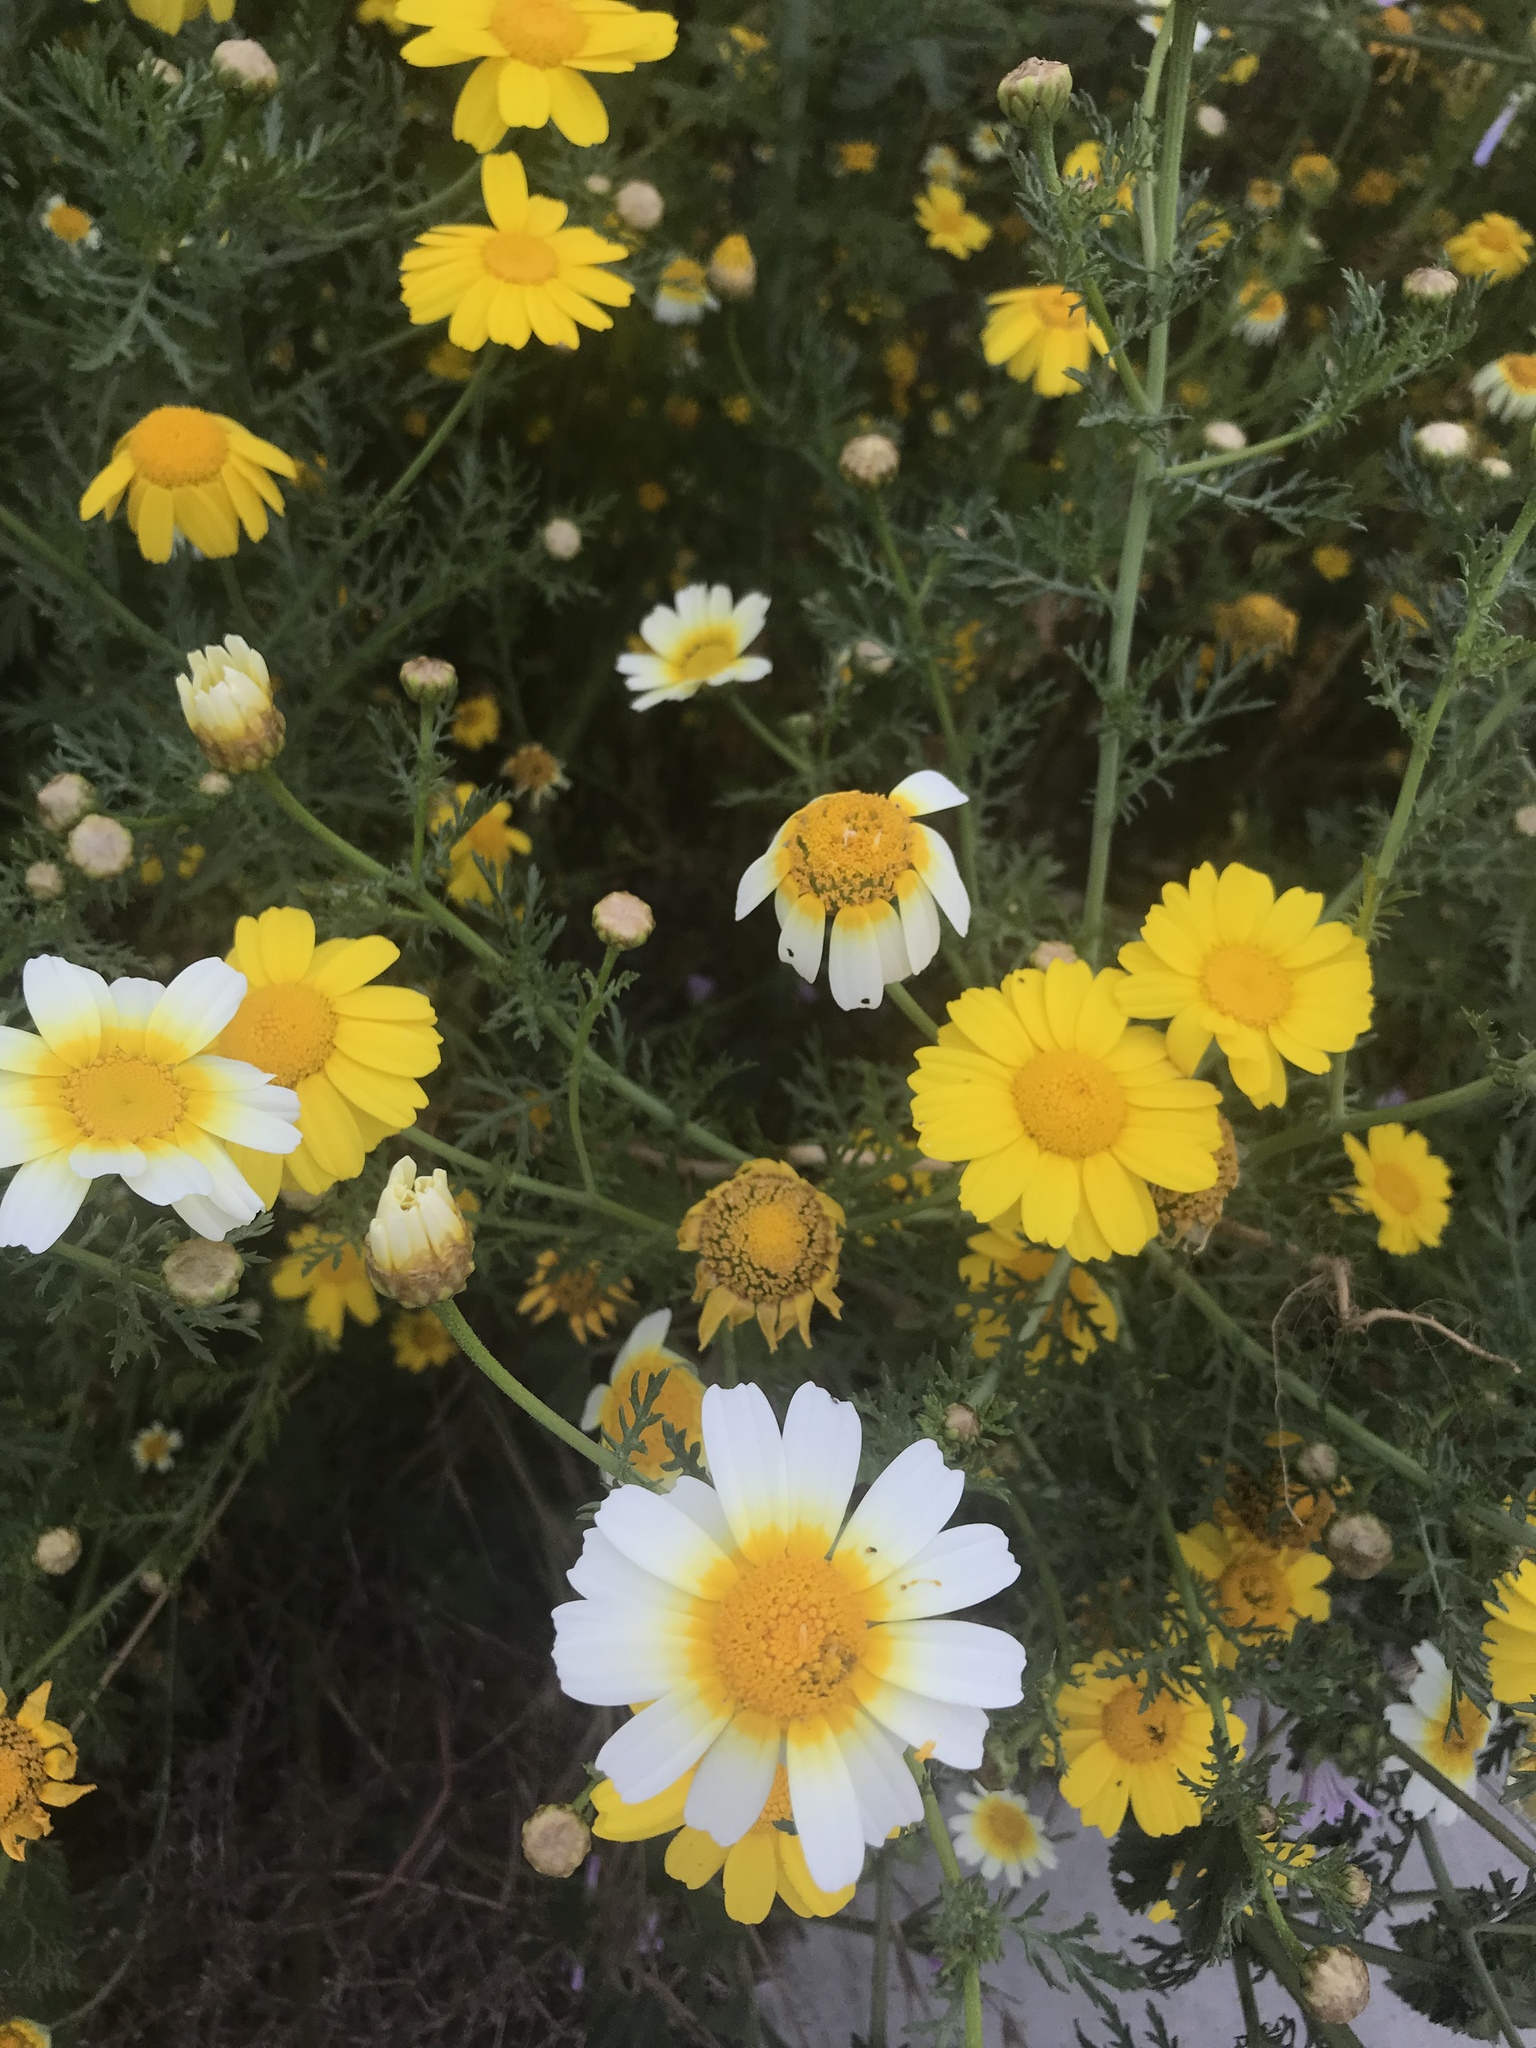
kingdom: Plantae
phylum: Tracheophyta
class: Magnoliopsida
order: Asterales
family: Asteraceae
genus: Glebionis
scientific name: Glebionis coronaria
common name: Crowndaisy
